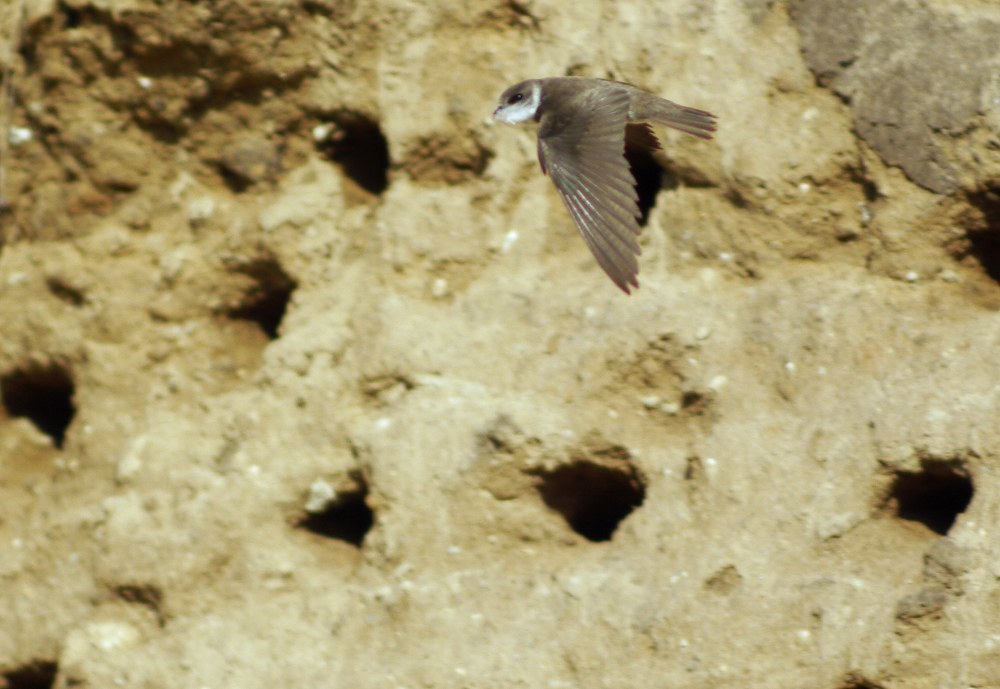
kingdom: Animalia
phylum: Chordata
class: Aves
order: Passeriformes
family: Hirundinidae
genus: Riparia
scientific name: Riparia riparia
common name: Sand martin
